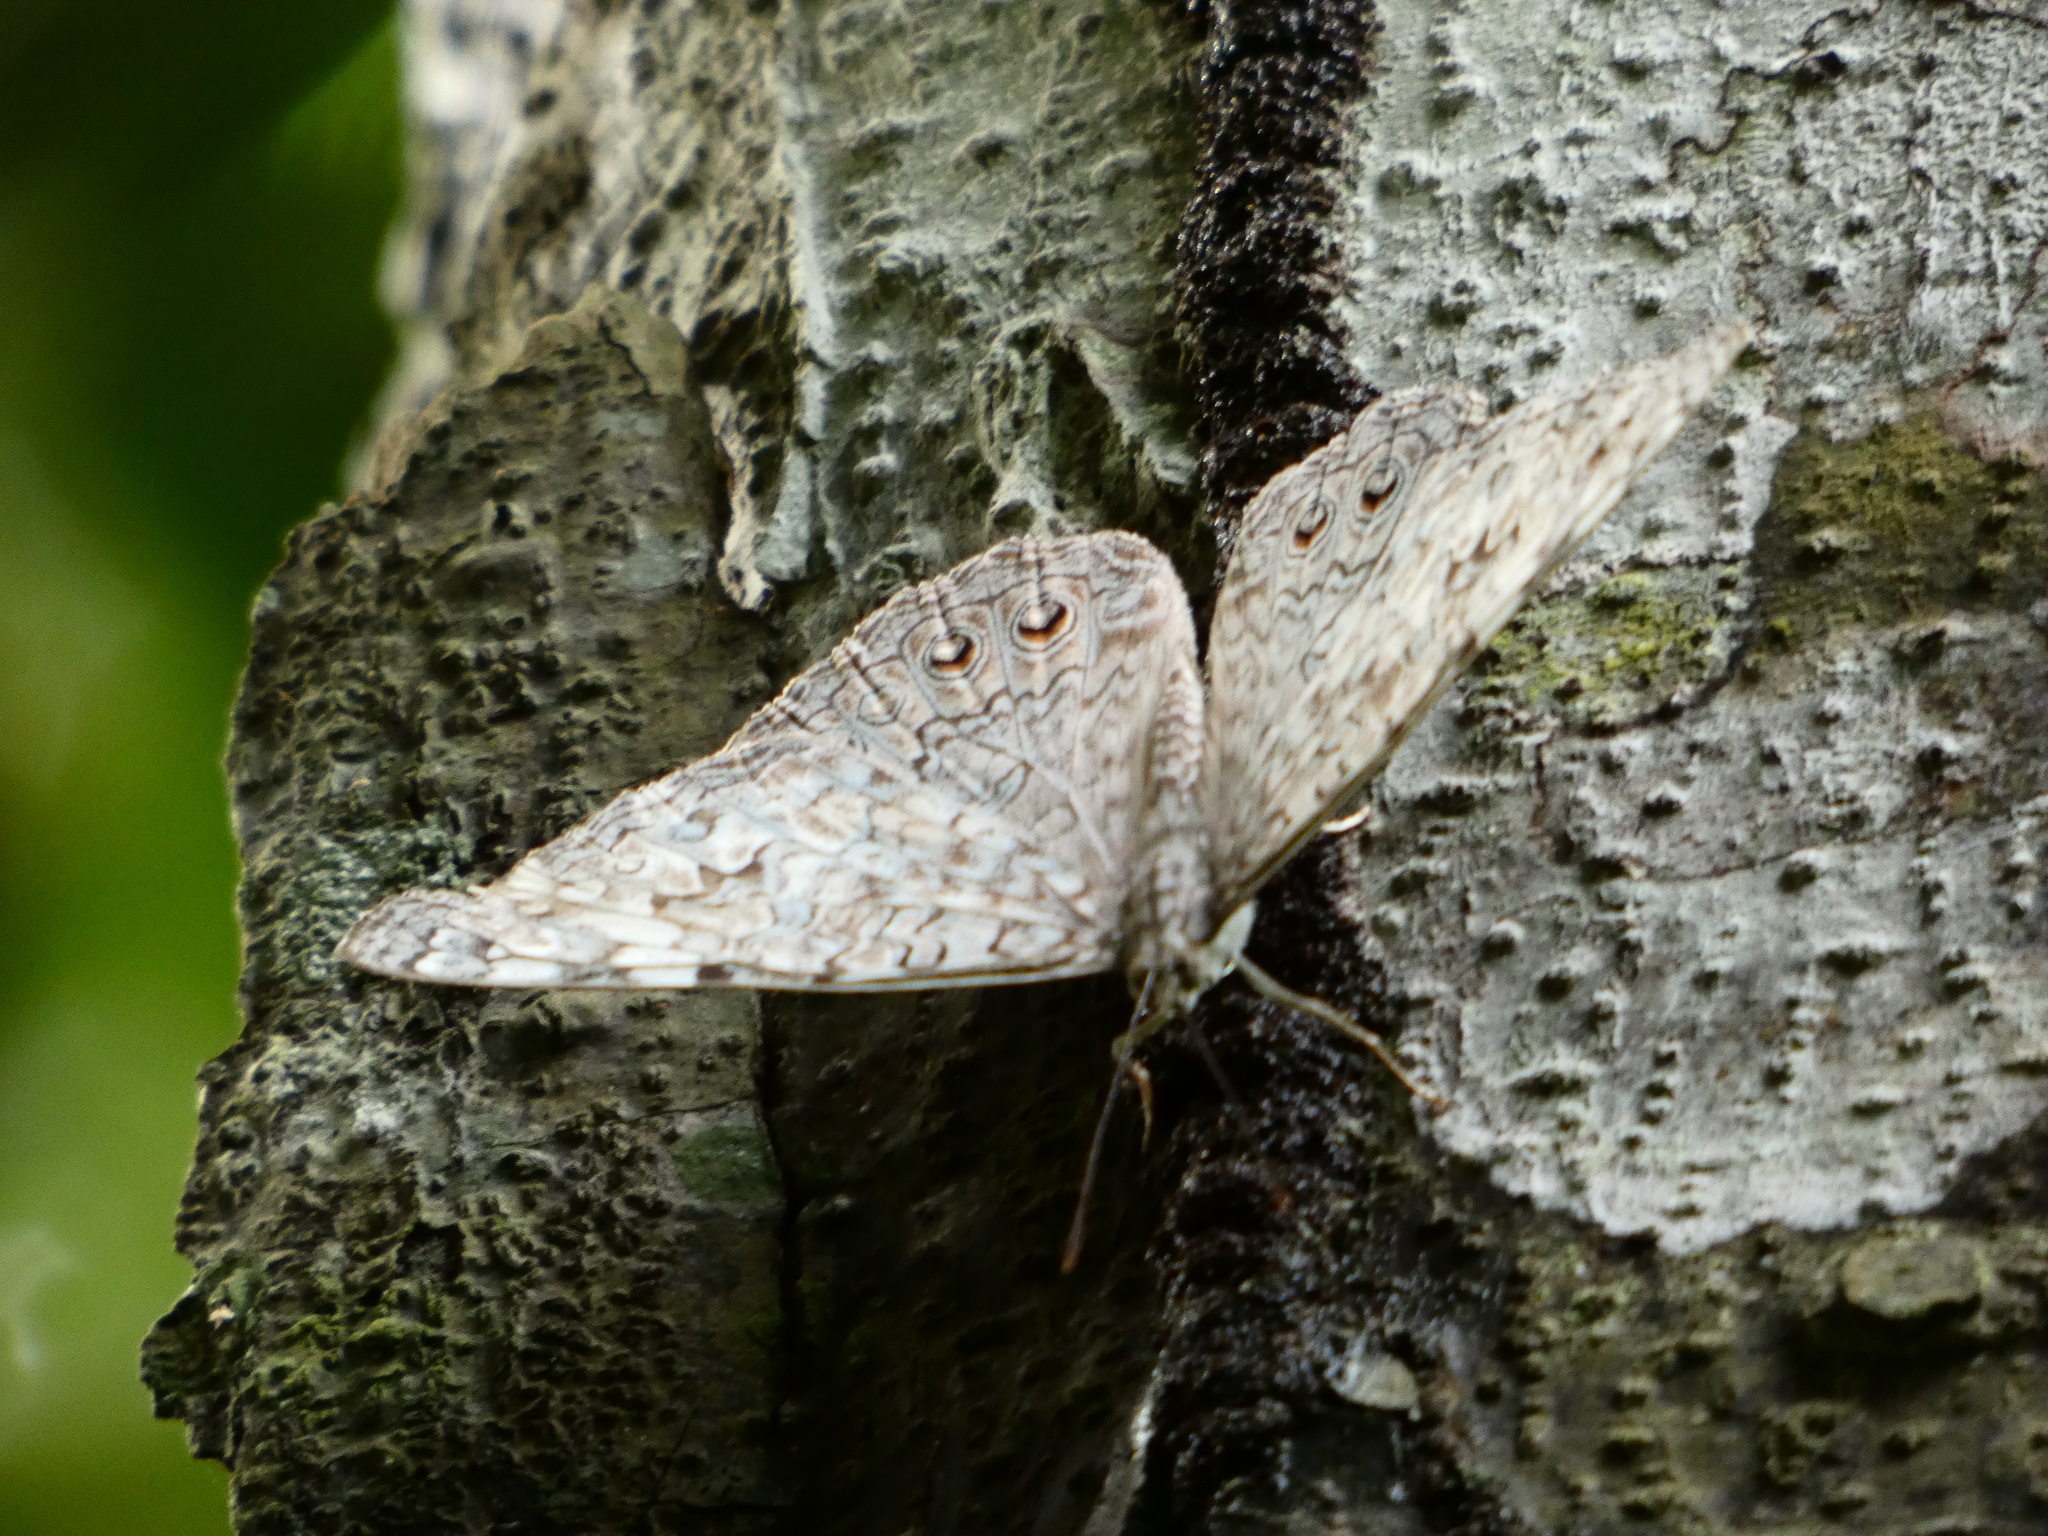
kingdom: Animalia
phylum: Arthropoda
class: Insecta
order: Lepidoptera
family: Nymphalidae
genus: Hamadryas
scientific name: Hamadryas februa
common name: Gray cracker
